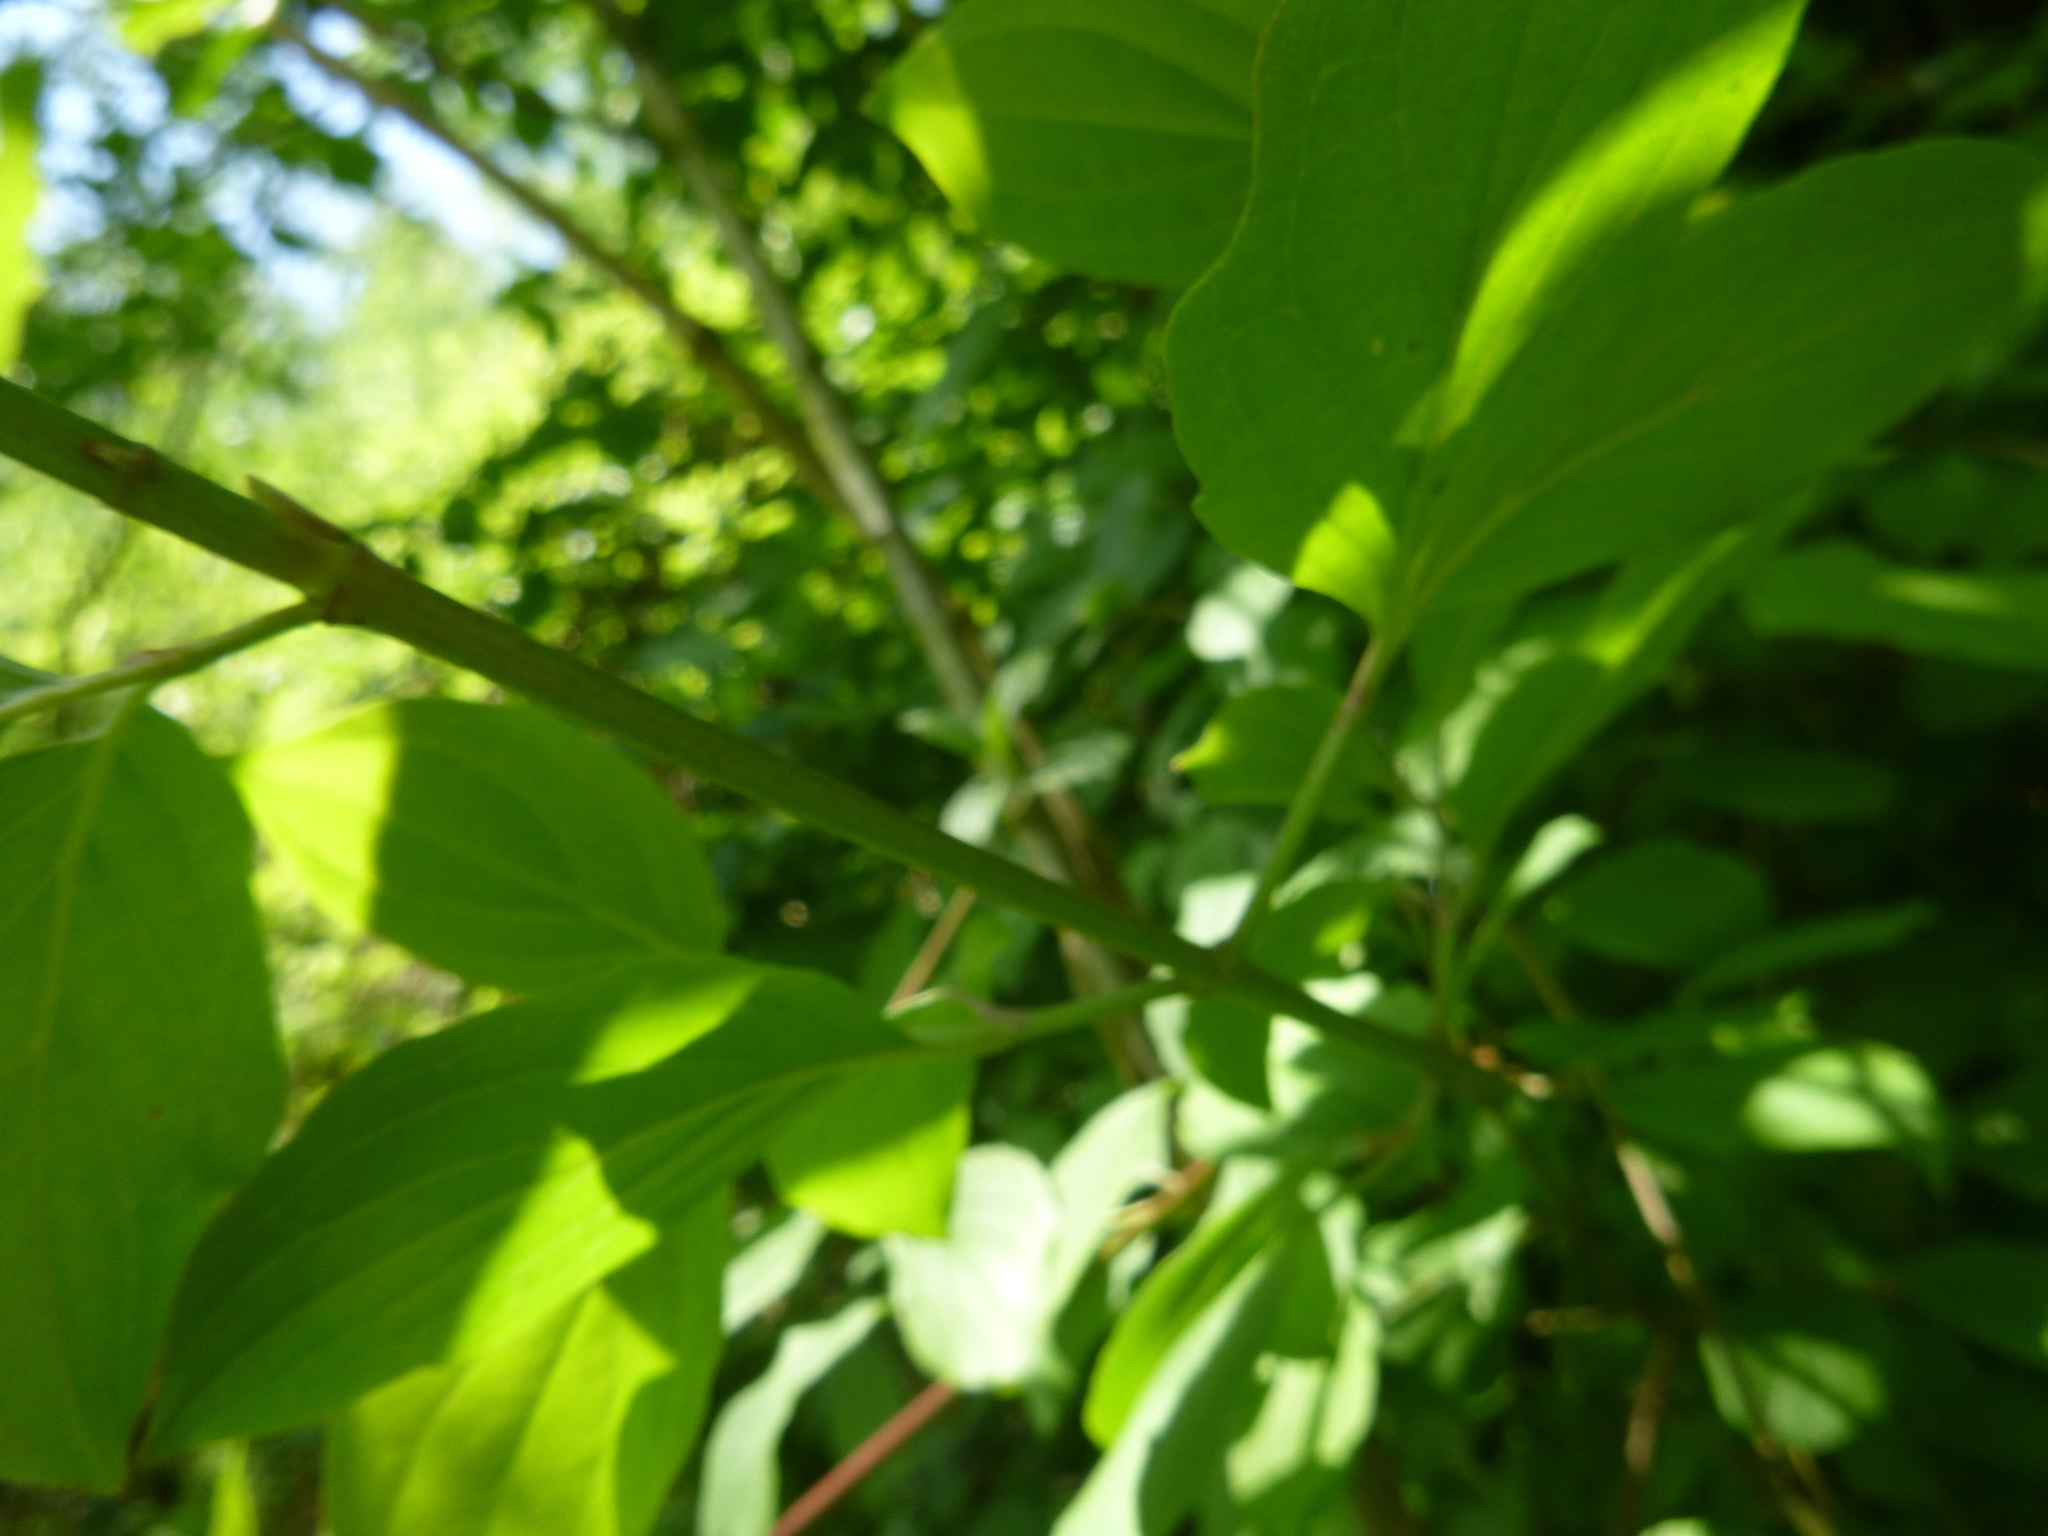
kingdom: Plantae
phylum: Tracheophyta
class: Magnoliopsida
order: Cornales
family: Cornaceae
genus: Cornus
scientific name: Cornus sanguinea
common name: Dogwood
